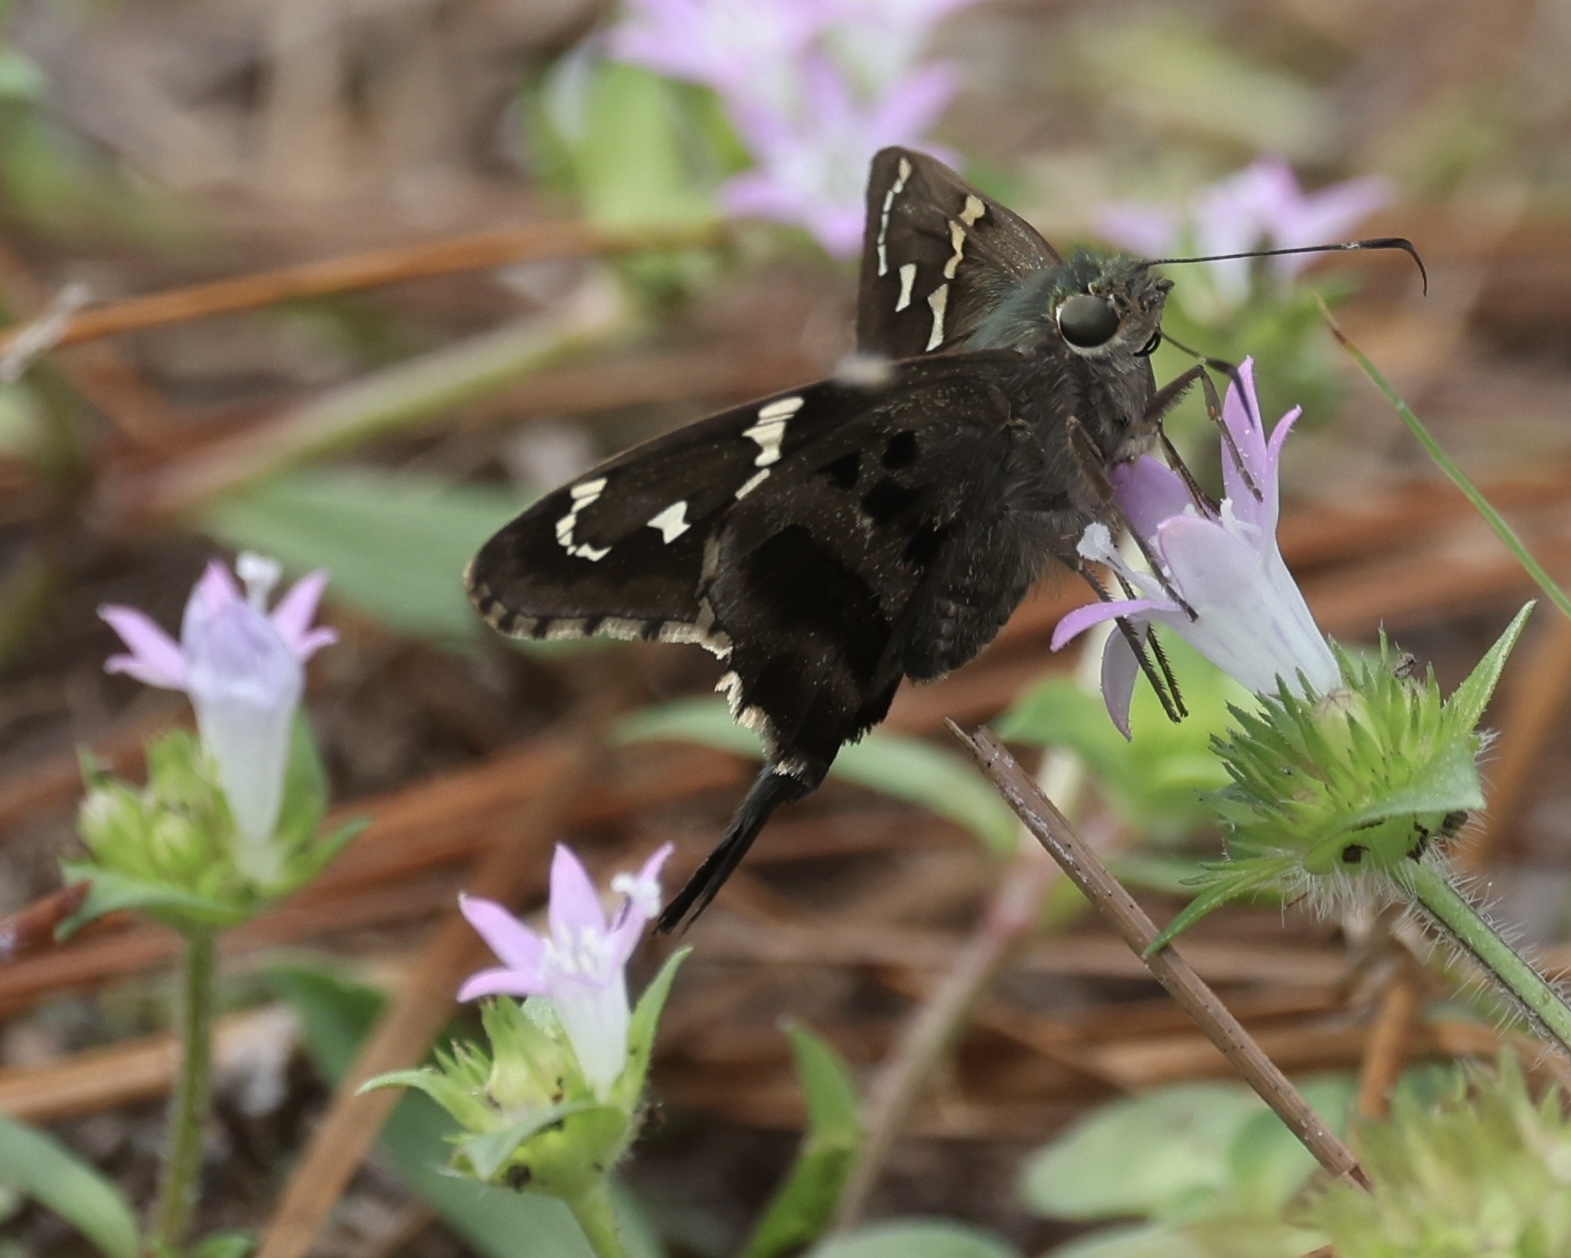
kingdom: Animalia
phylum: Arthropoda
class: Insecta
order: Lepidoptera
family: Hesperiidae
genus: Urbanus
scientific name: Urbanus proteus
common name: Long-tailed skipper
